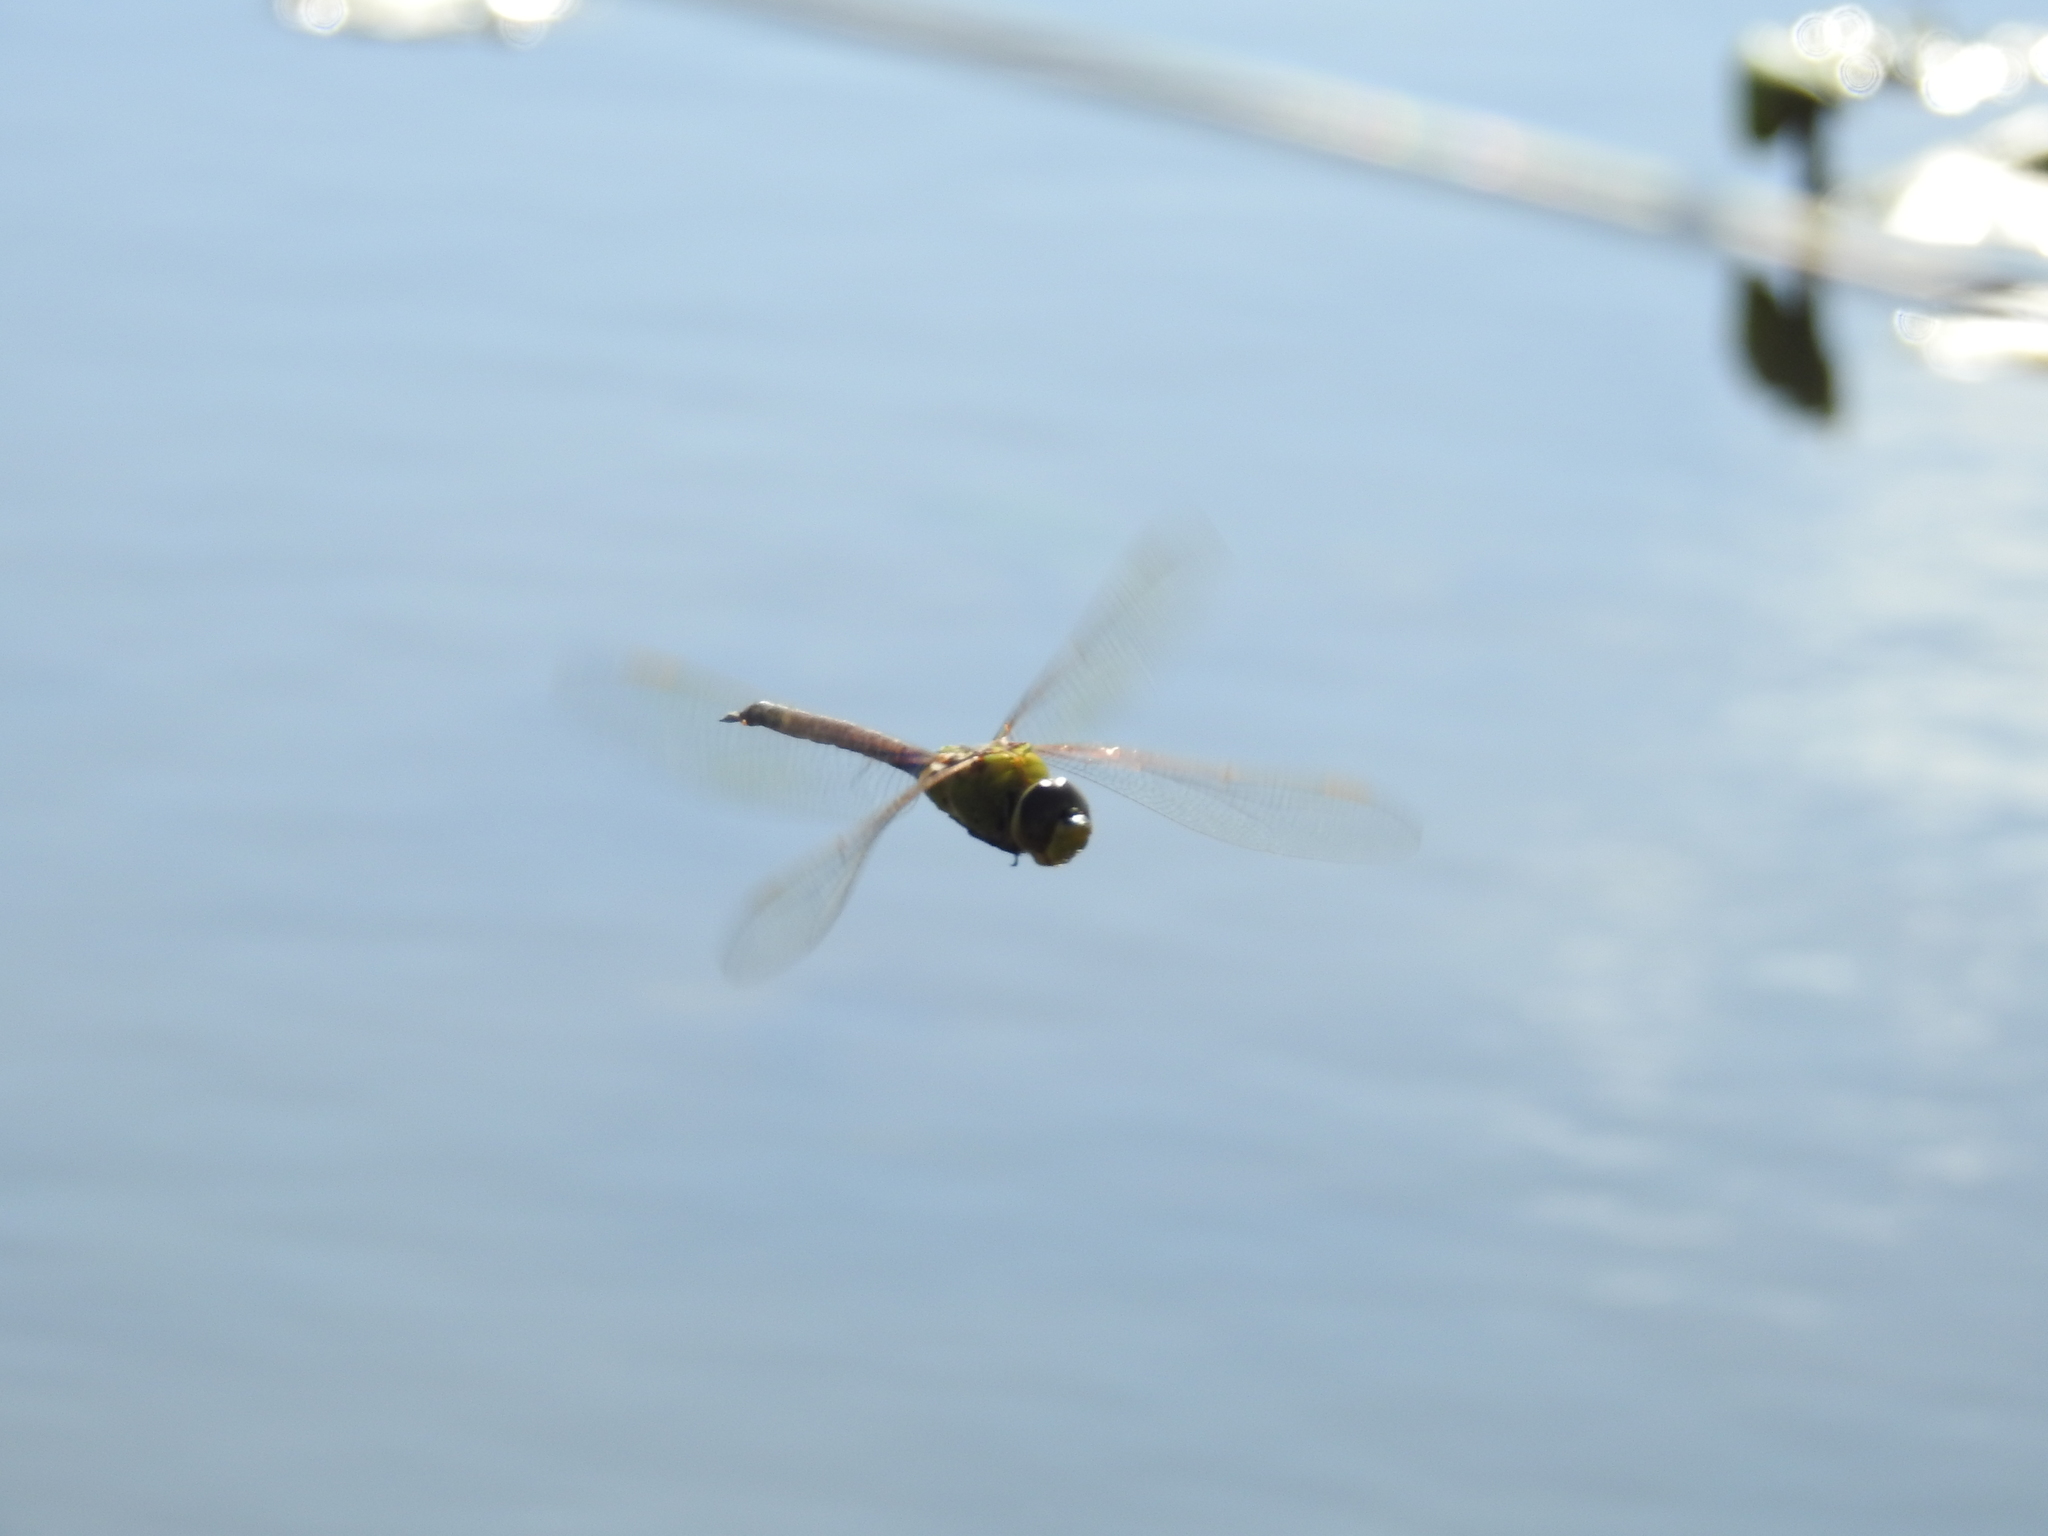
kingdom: Animalia
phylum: Arthropoda
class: Insecta
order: Odonata
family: Aeshnidae
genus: Anax
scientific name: Anax junius
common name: Common green darner
